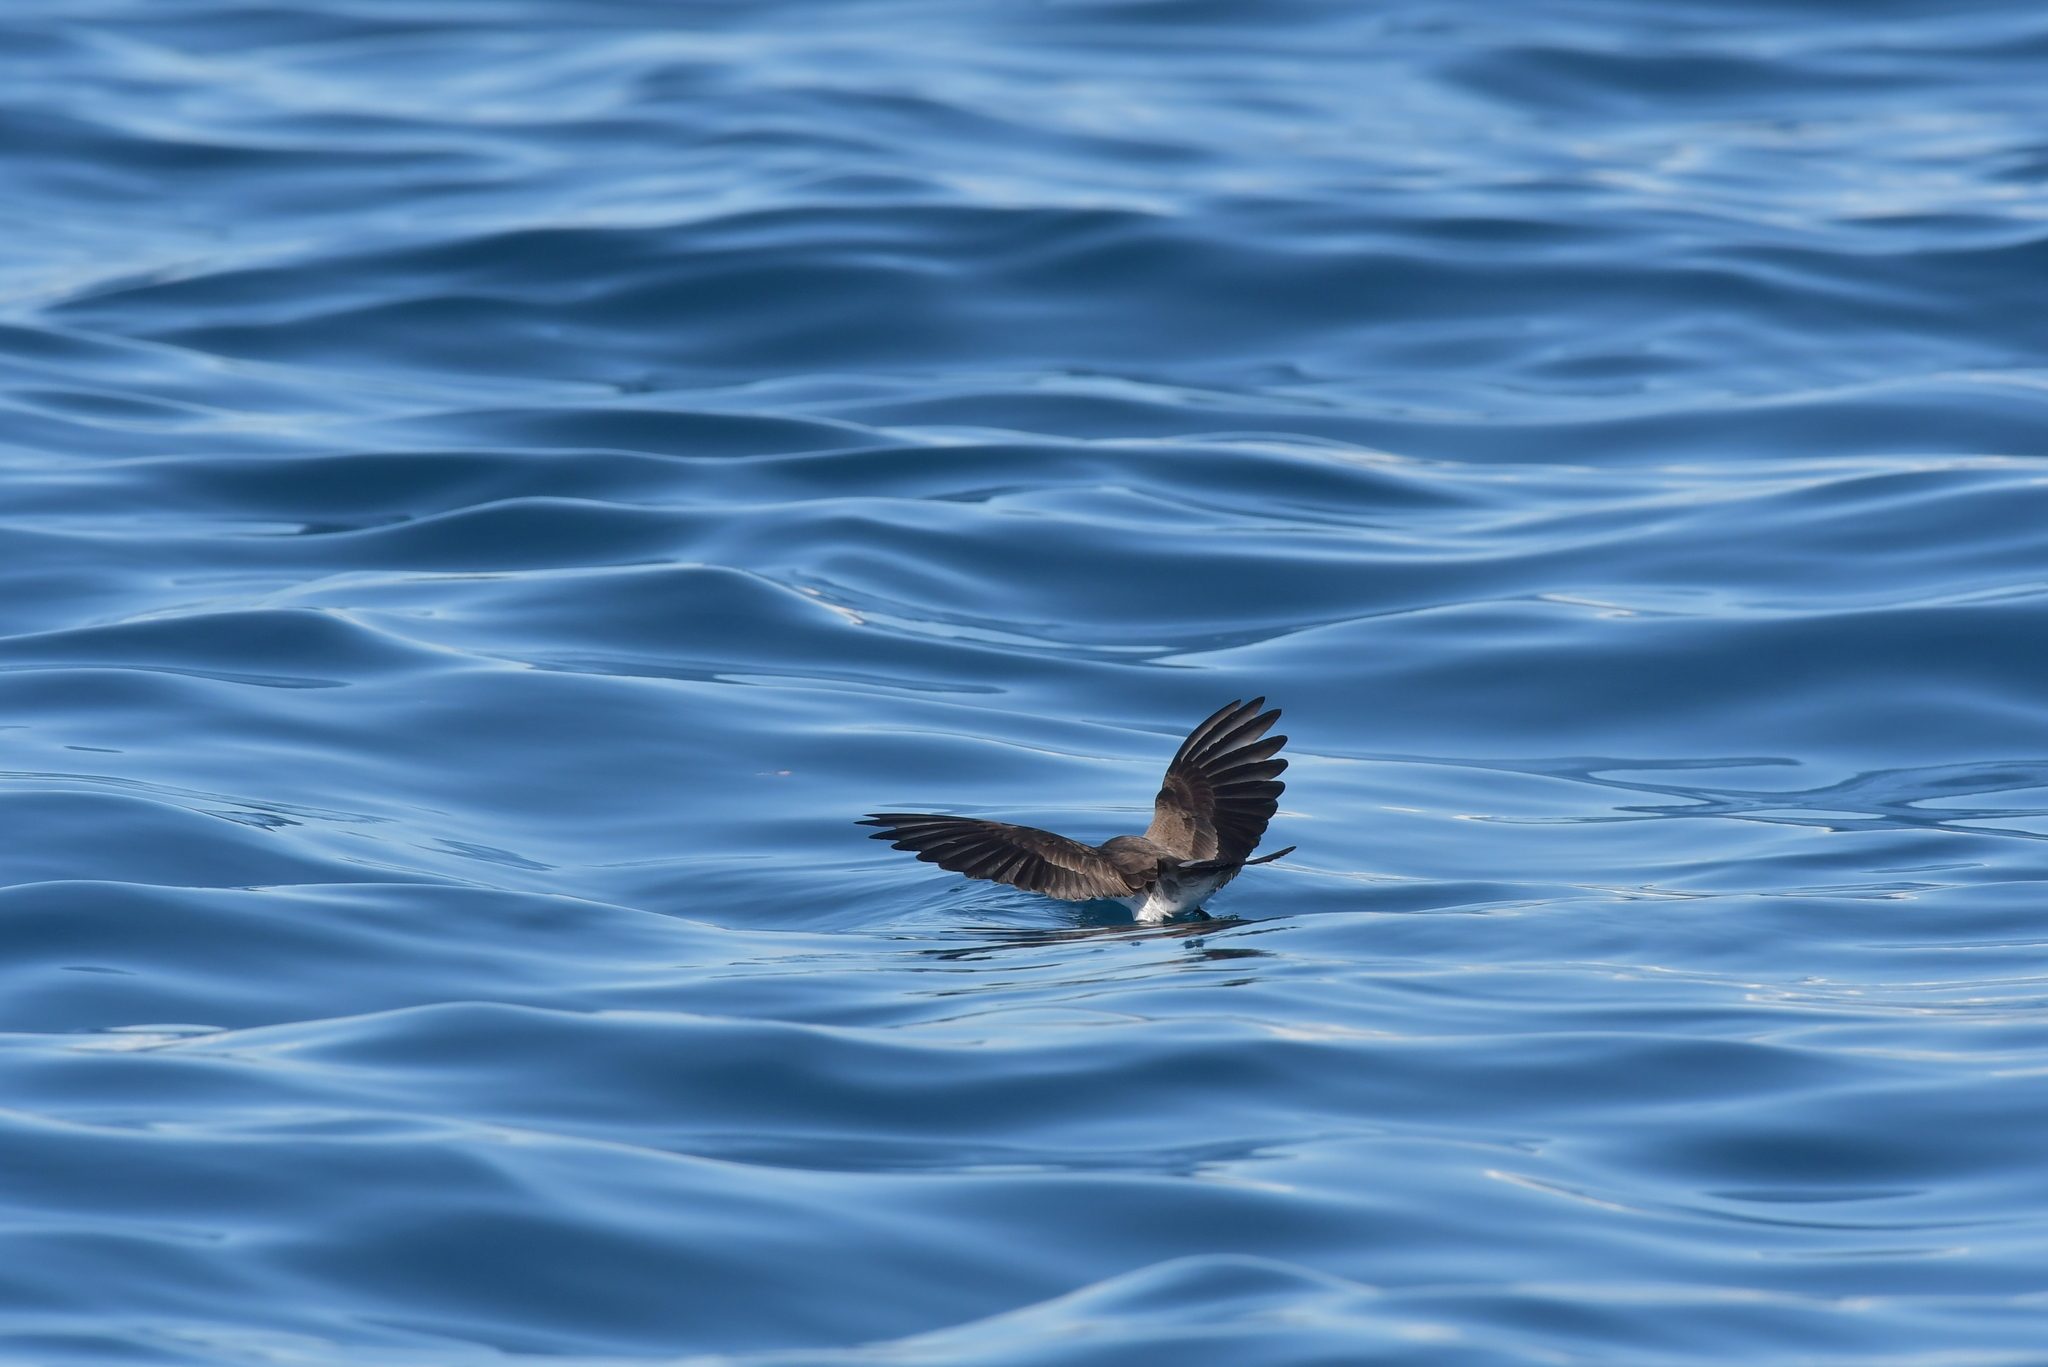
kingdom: Animalia
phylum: Chordata
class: Aves
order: Procellariiformes
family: Hydrobatidae
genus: Pelagodroma
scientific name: Pelagodroma marina
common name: White-faced storm-petrel
